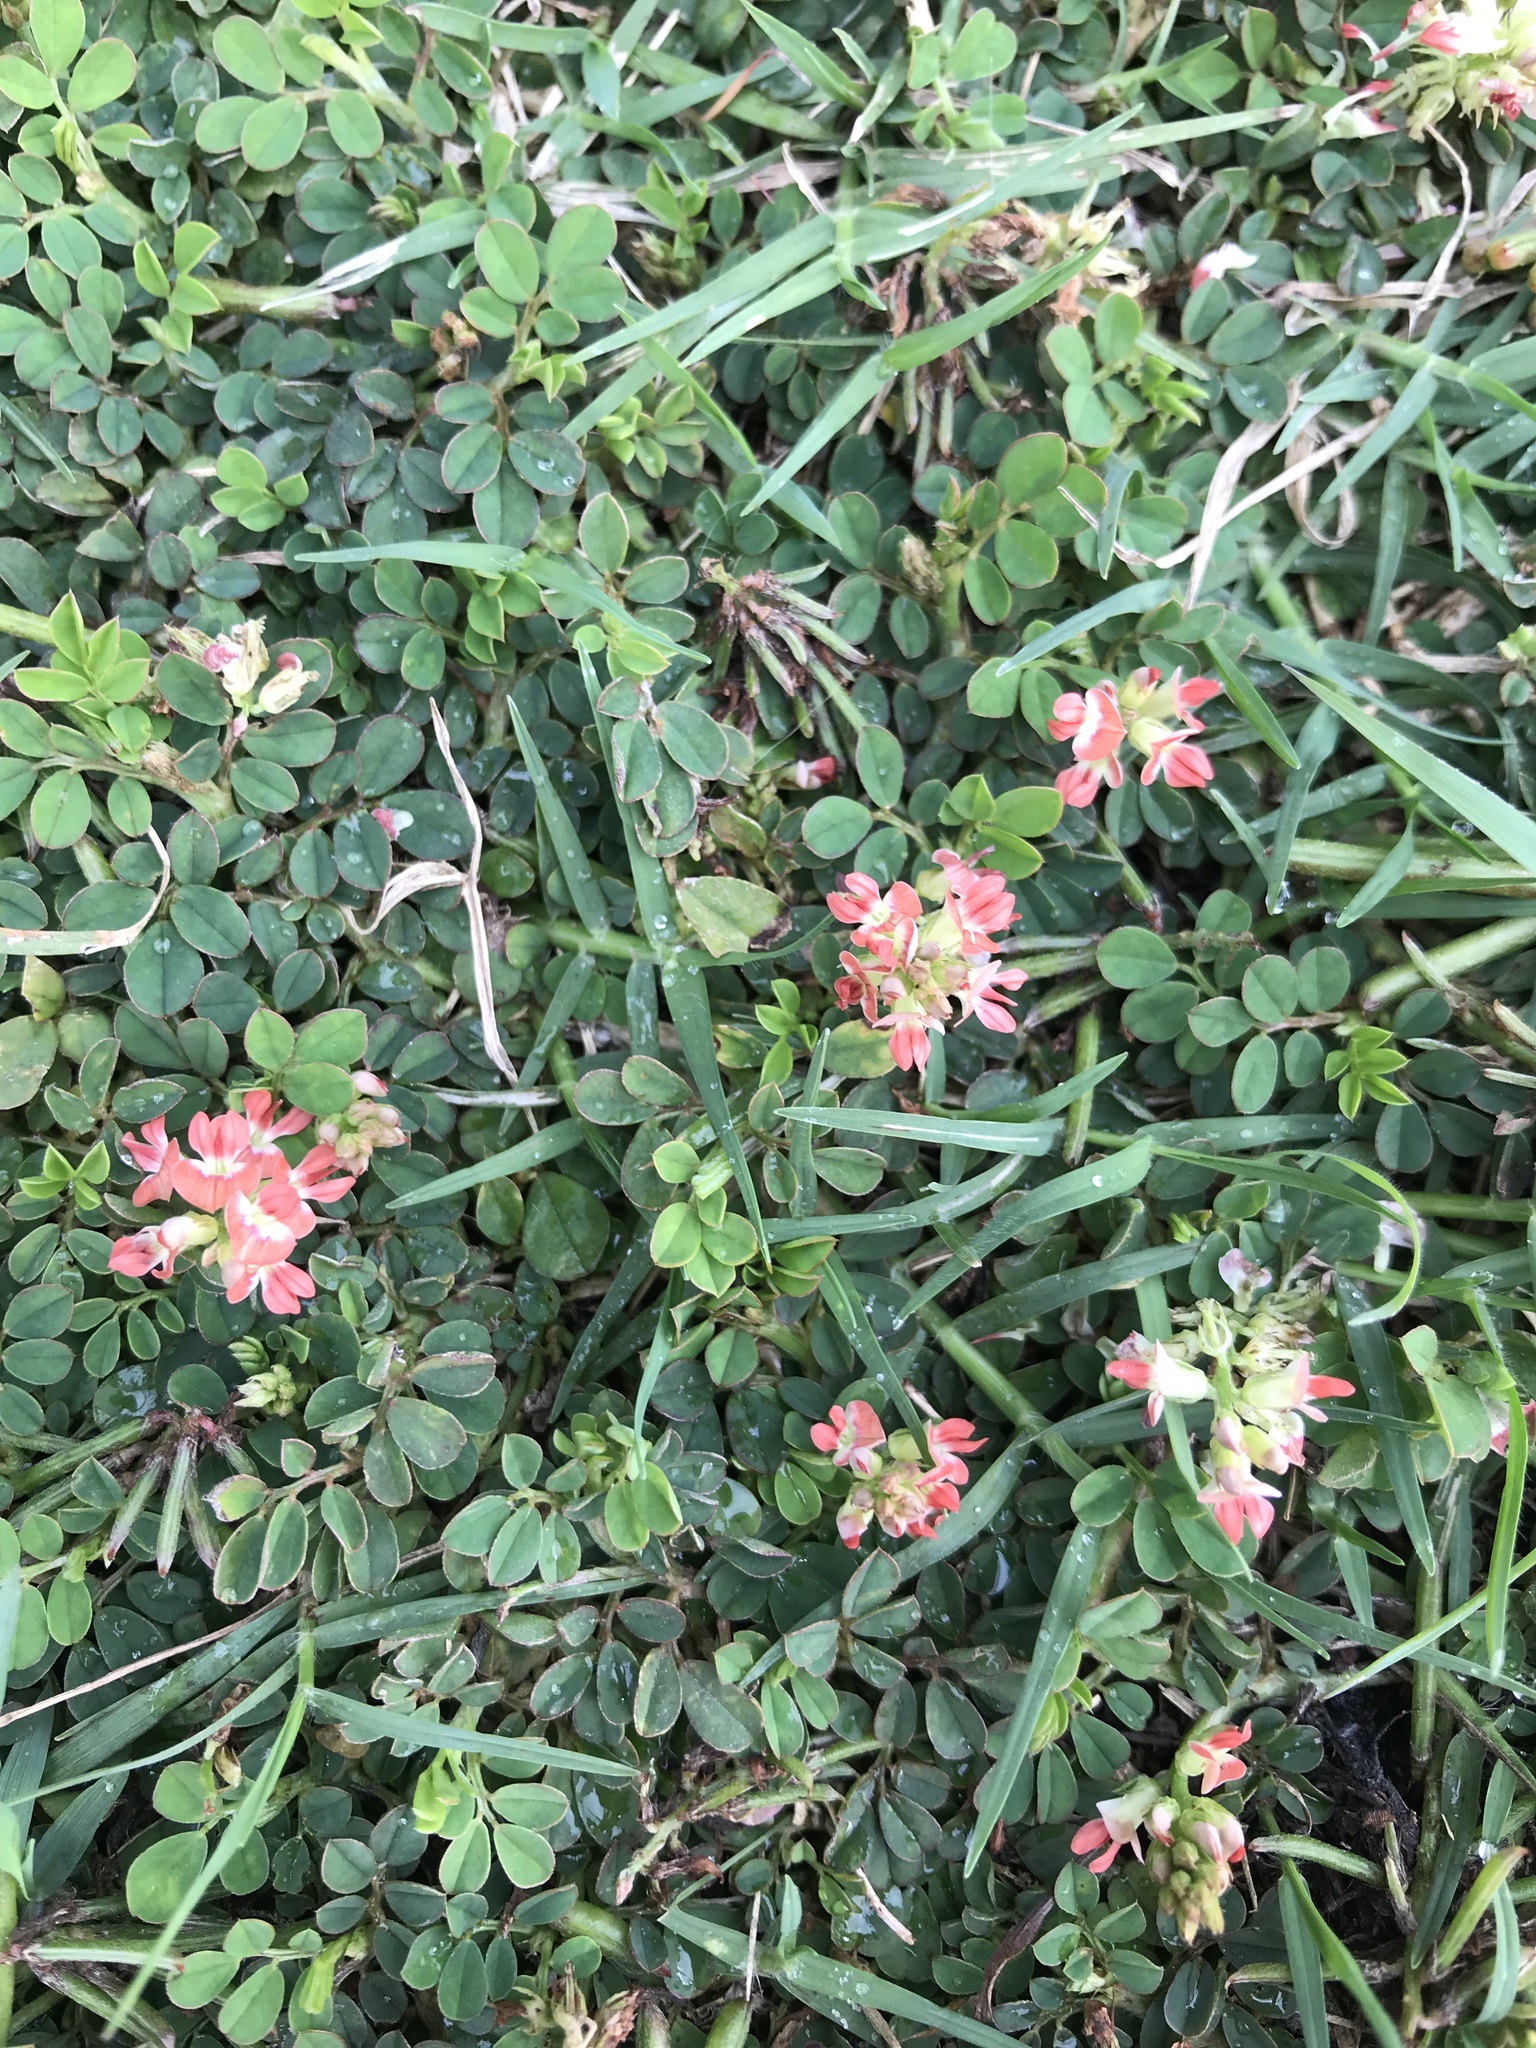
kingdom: Plantae
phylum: Tracheophyta
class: Magnoliopsida
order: Fabales
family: Fabaceae
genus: Indigofera
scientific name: Indigofera spicata
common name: Creeping indigo
